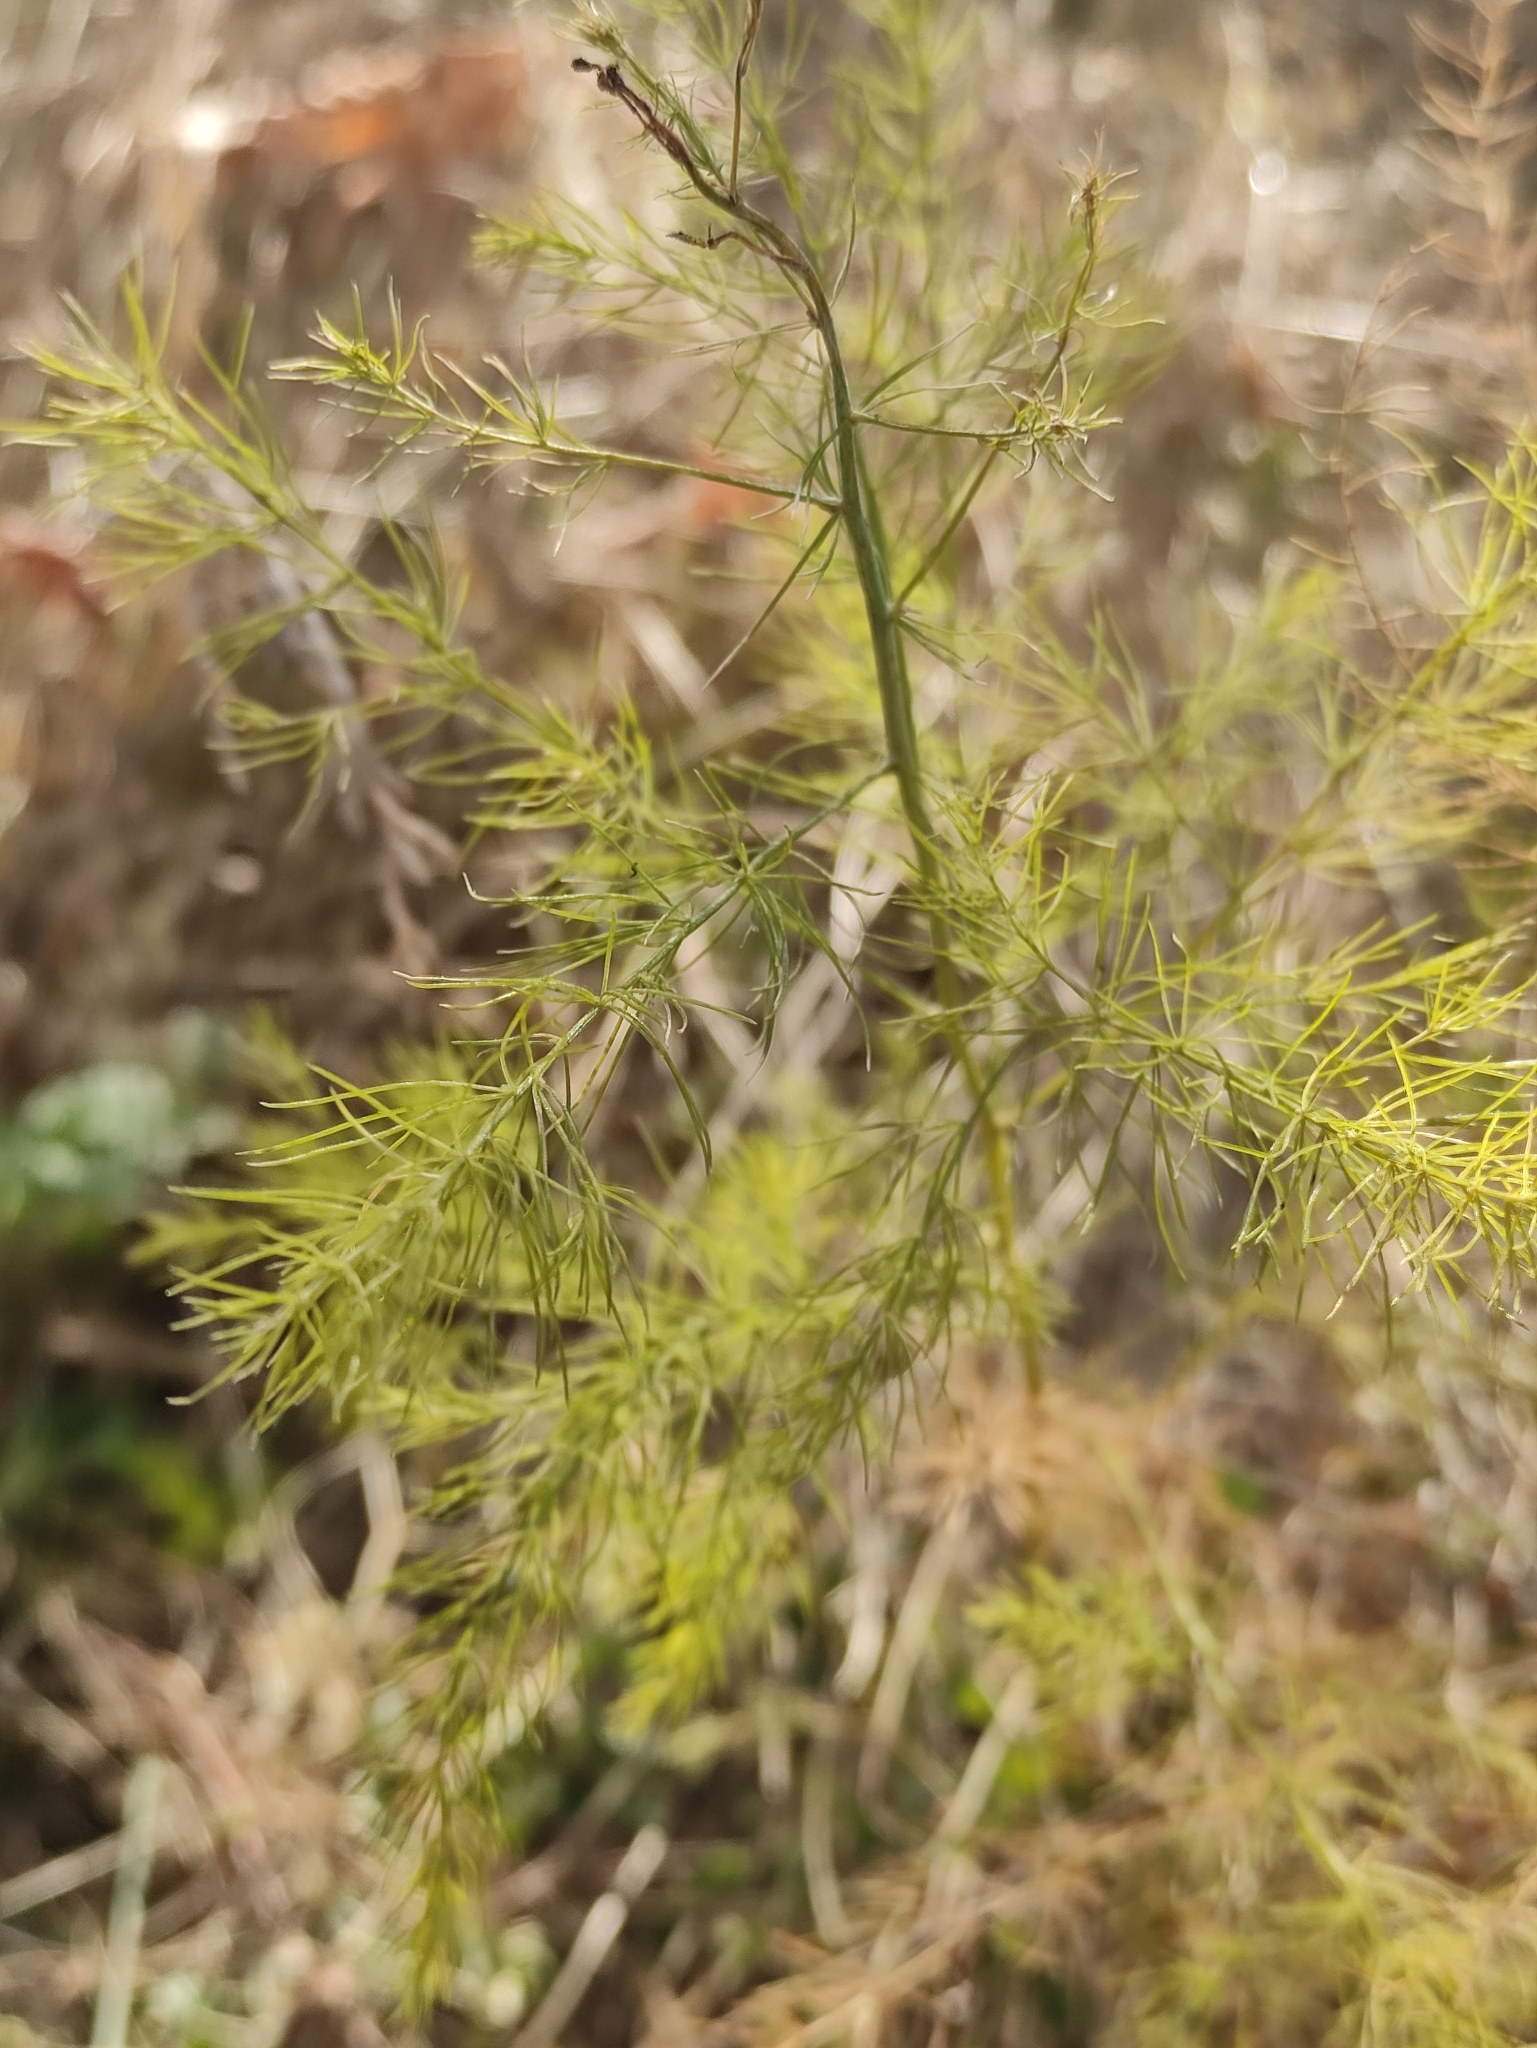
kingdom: Plantae
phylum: Tracheophyta
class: Liliopsida
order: Asparagales
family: Asparagaceae
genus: Asparagus
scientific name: Asparagus officinalis
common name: Garden asparagus
